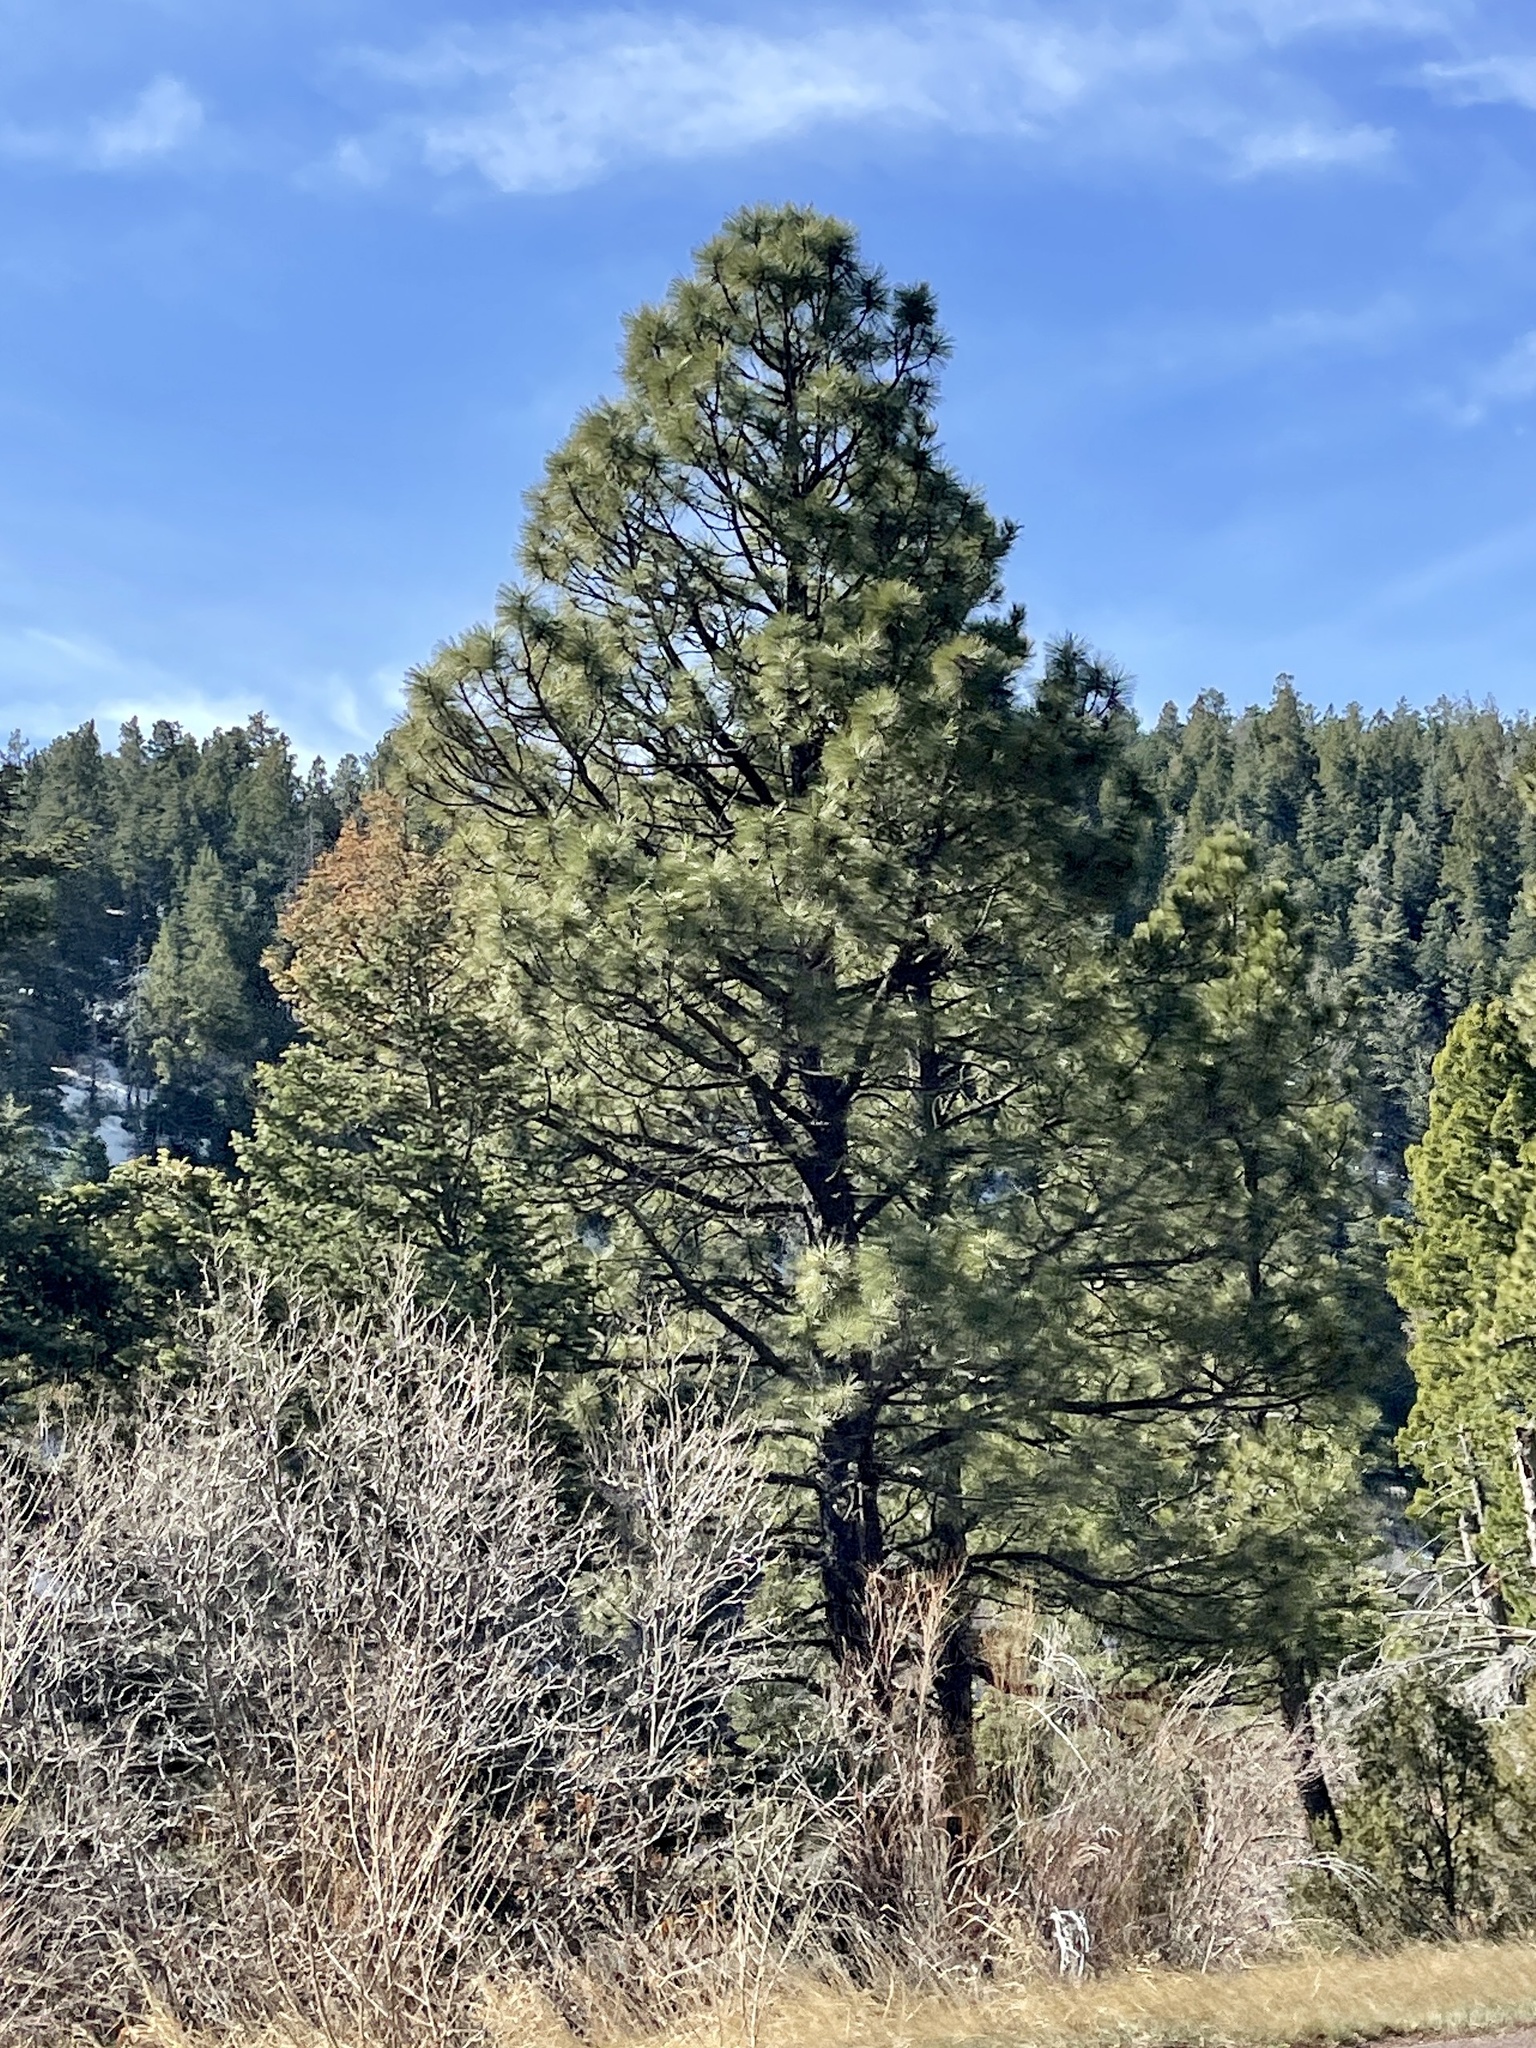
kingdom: Plantae
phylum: Tracheophyta
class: Pinopsida
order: Pinales
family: Pinaceae
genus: Pinus
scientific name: Pinus ponderosa
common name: Western yellow-pine
